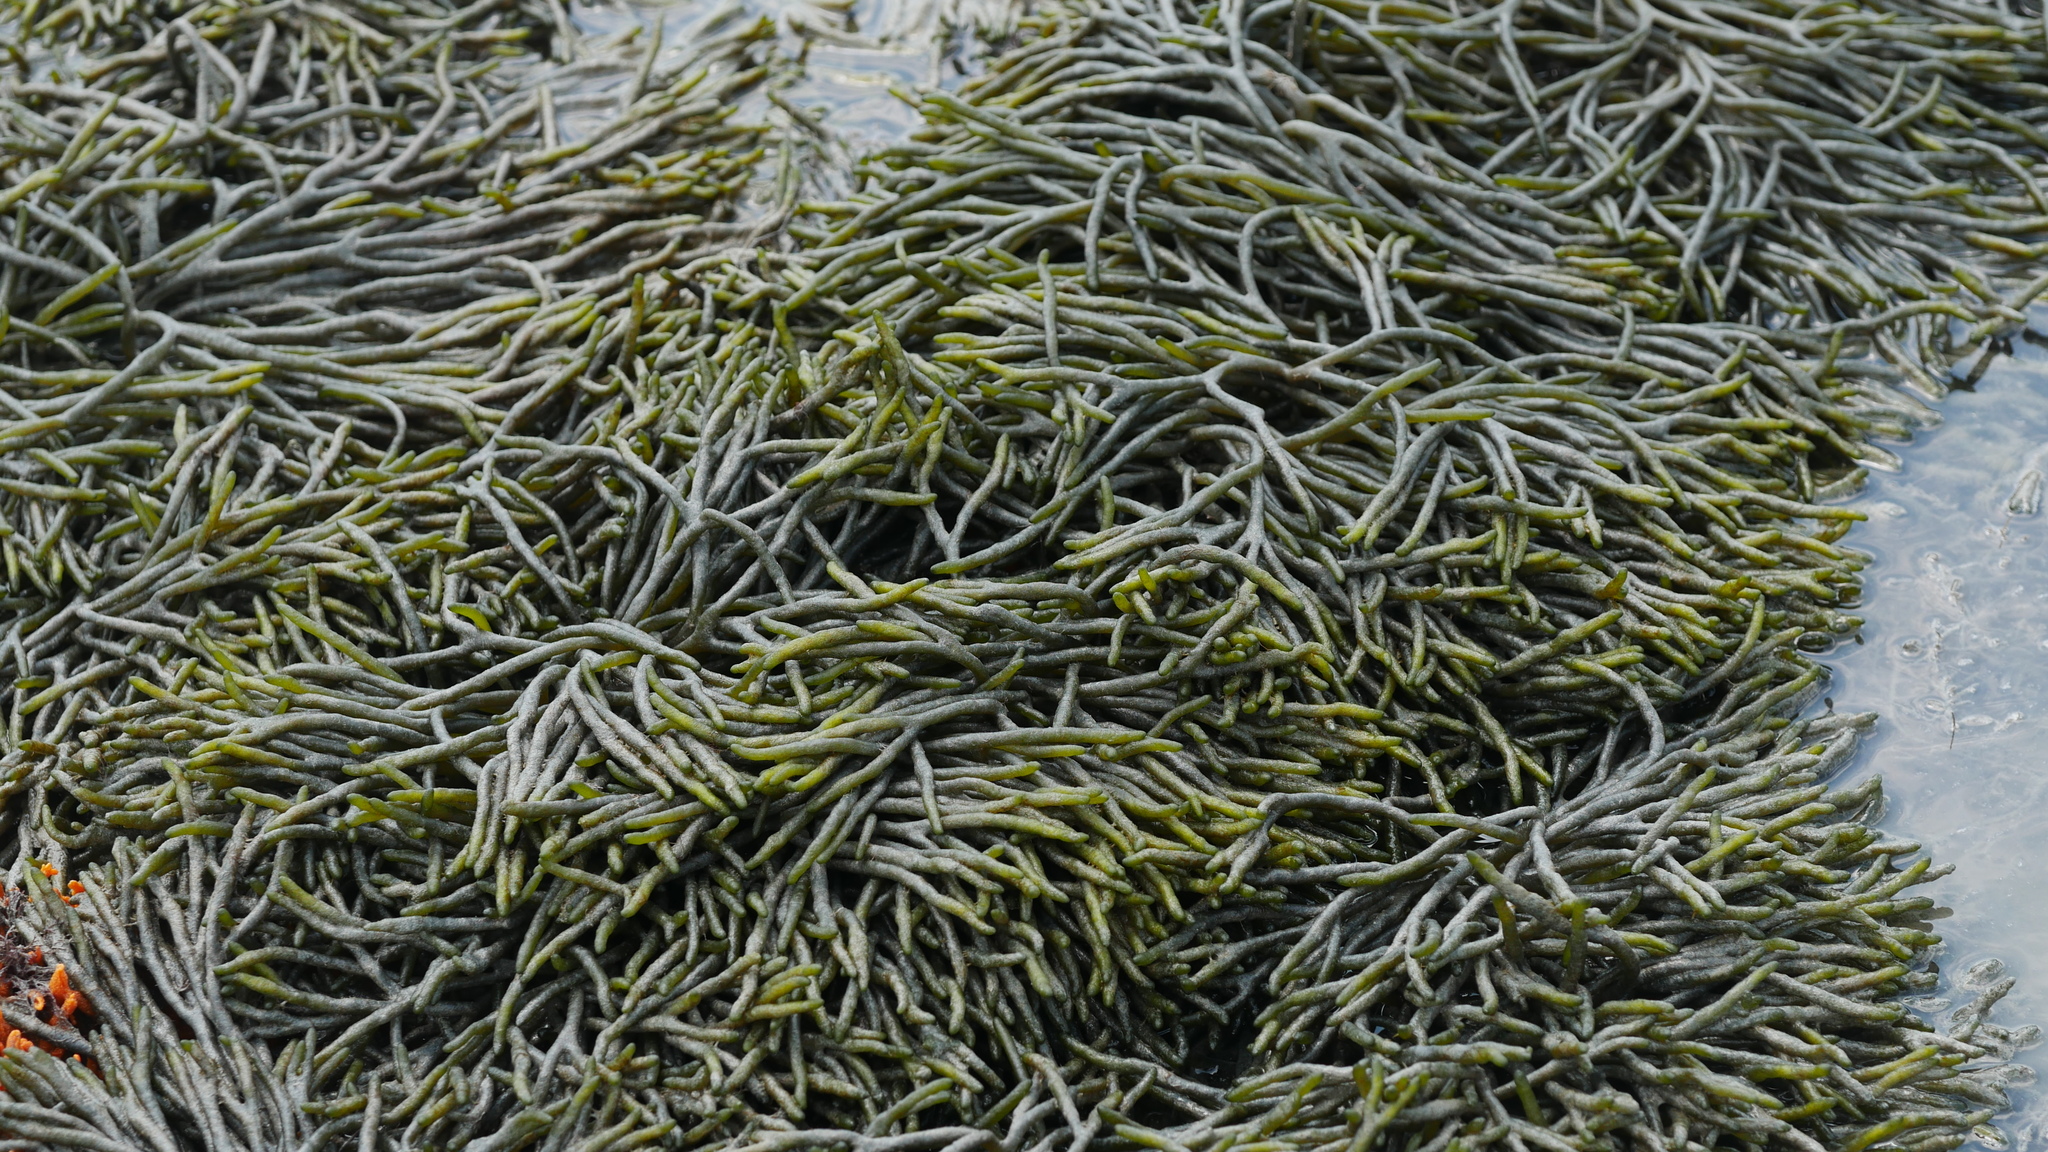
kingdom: Plantae
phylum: Chlorophyta
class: Ulvophyceae
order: Bryopsidales
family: Codiaceae
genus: Codium
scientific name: Codium fragile
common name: Dead man's fingers
